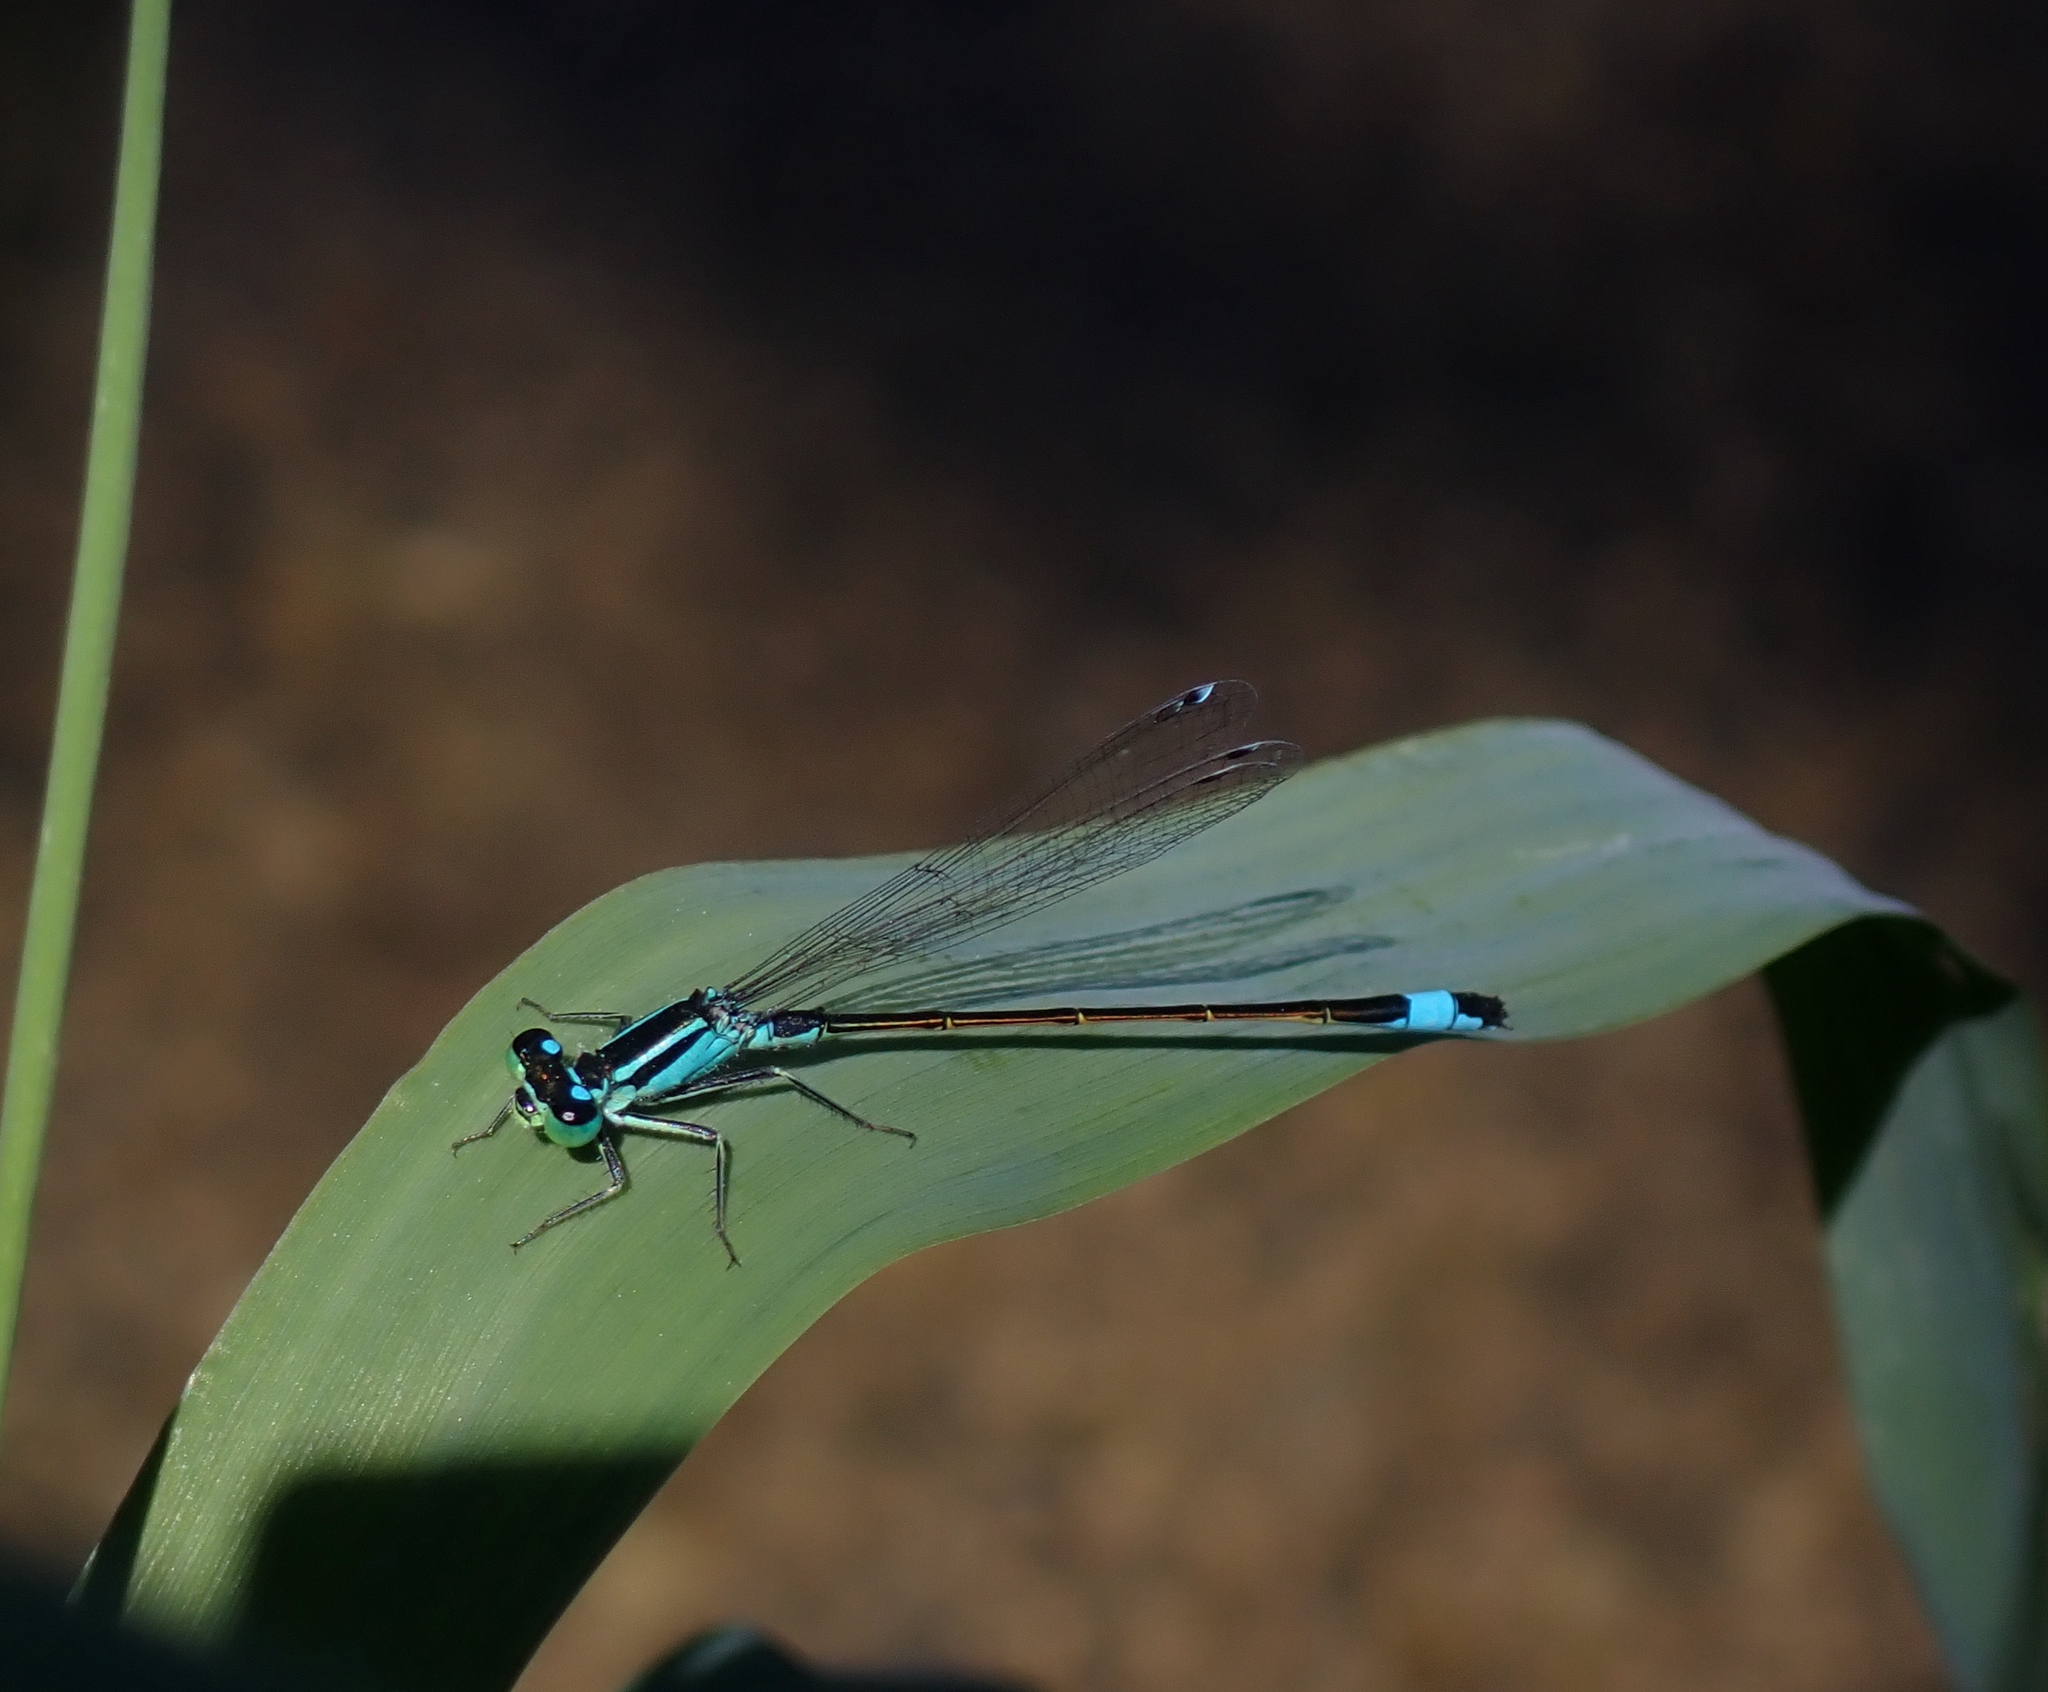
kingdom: Animalia
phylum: Arthropoda
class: Insecta
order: Odonata
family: Coenagrionidae
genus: Ischnura
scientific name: Ischnura elegans
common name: Blue-tailed damselfly
